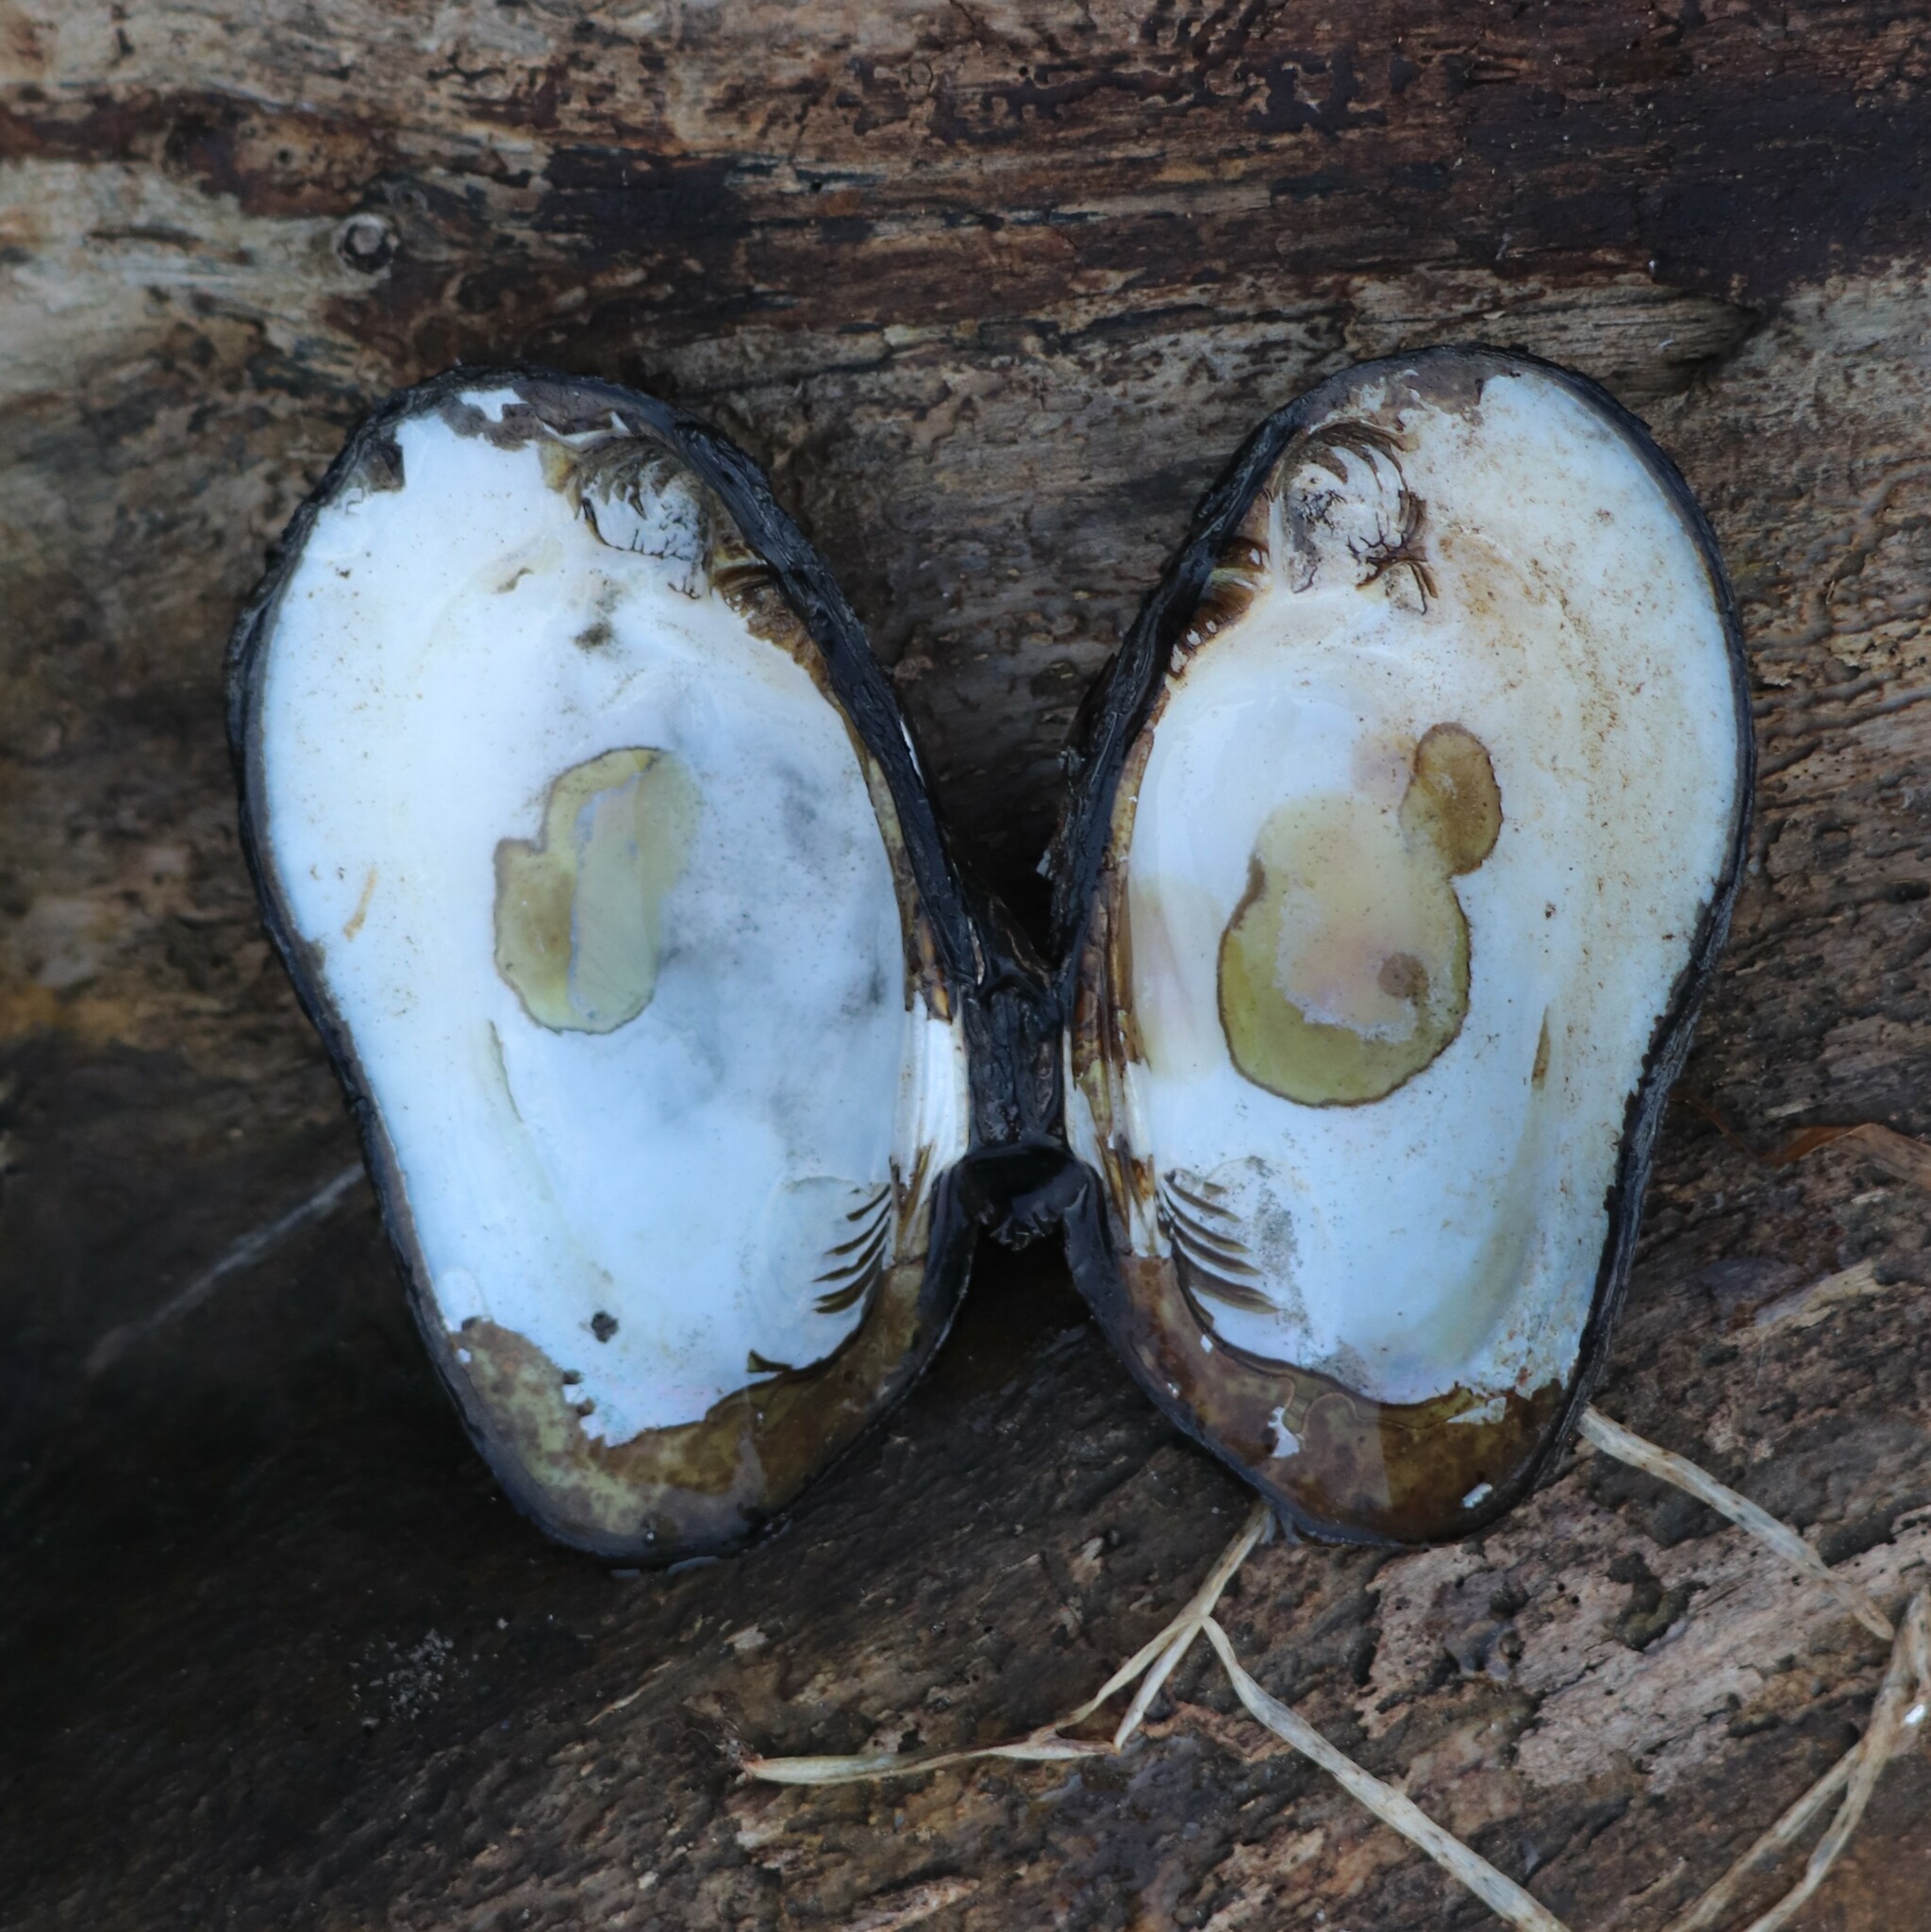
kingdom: Animalia
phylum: Mollusca
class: Bivalvia
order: Unionida
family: Unionidae
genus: Elliptio
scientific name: Elliptio complanata
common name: Eastern elliptio
